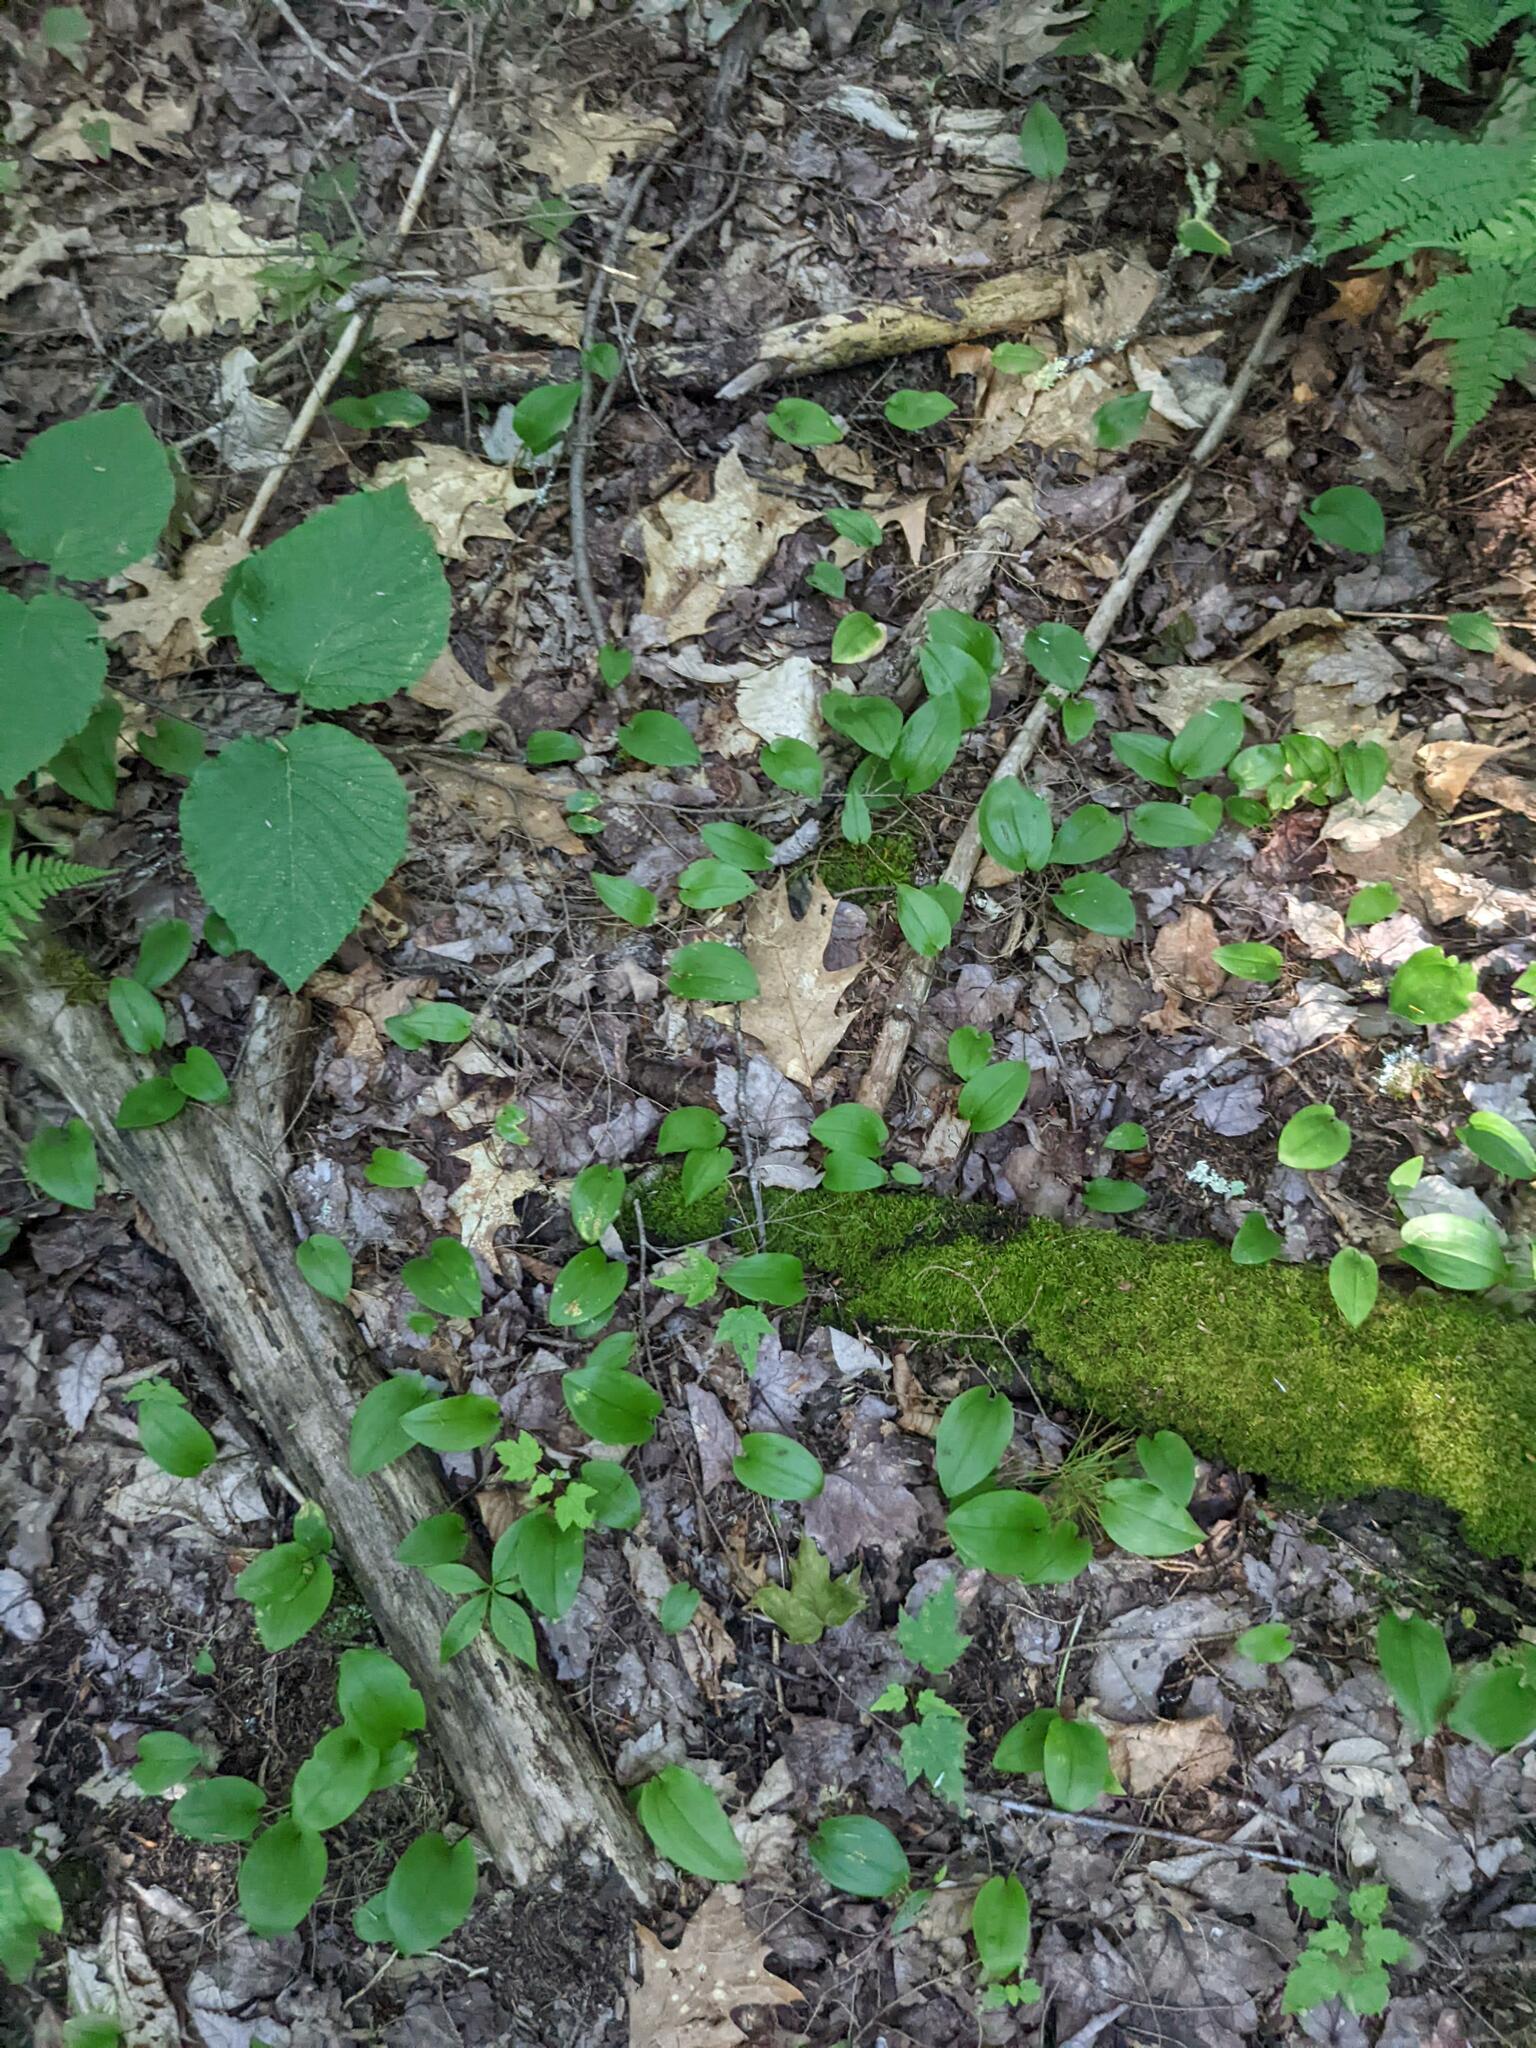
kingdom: Plantae
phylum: Tracheophyta
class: Liliopsida
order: Asparagales
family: Asparagaceae
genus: Maianthemum
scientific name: Maianthemum canadense
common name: False lily-of-the-valley
